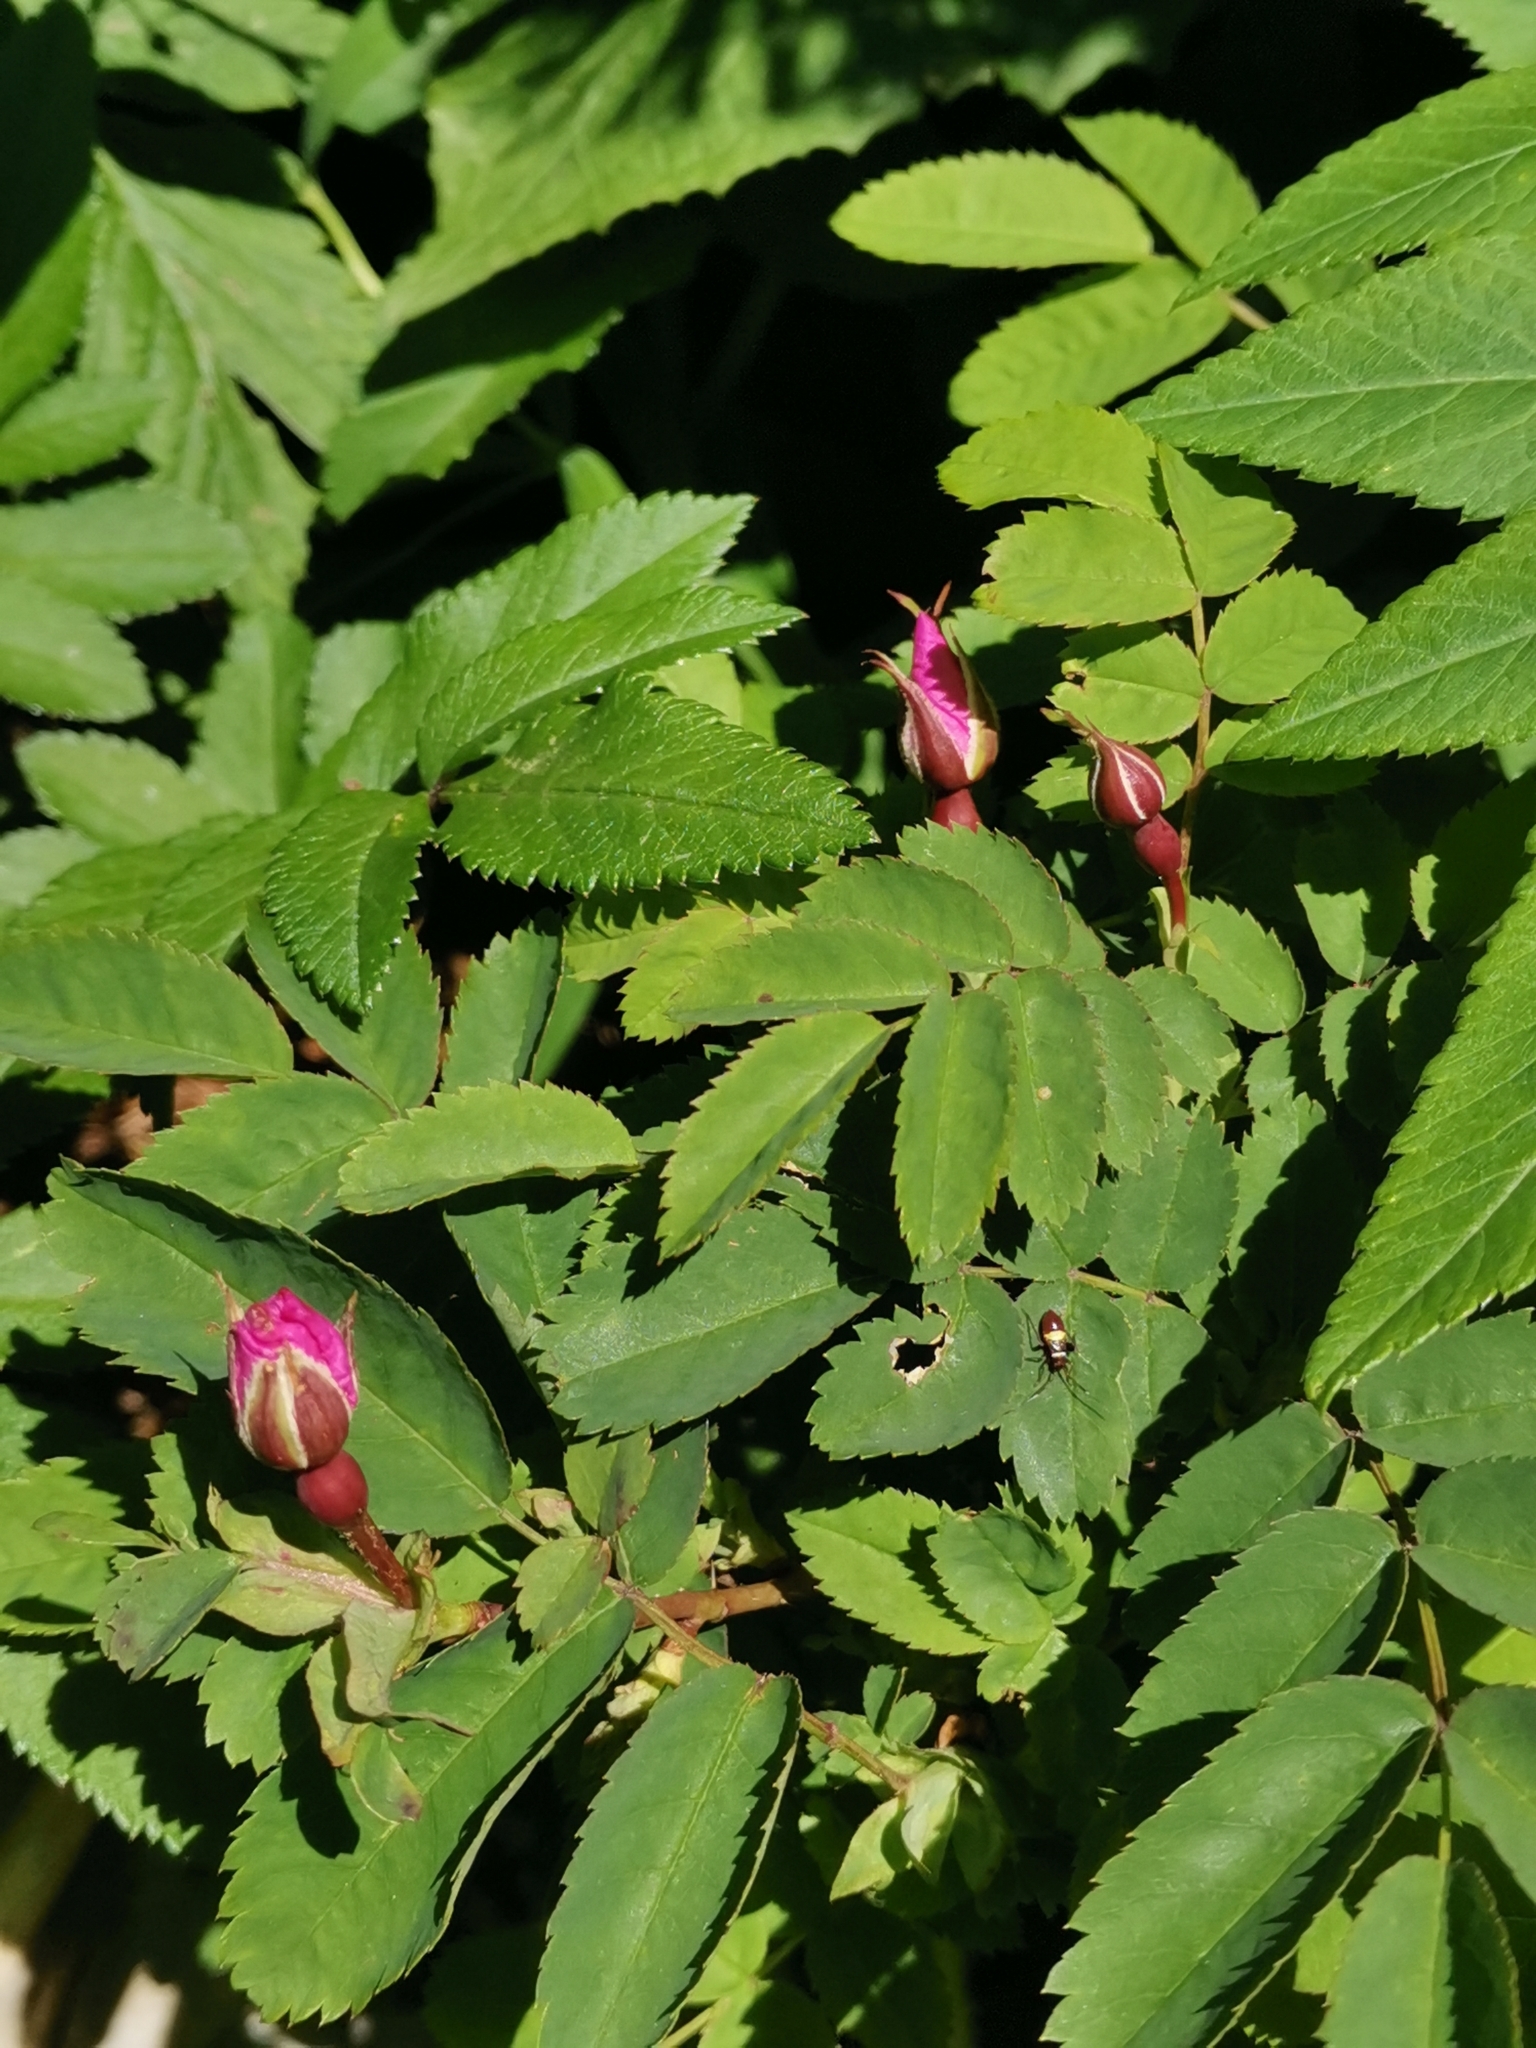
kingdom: Plantae
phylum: Tracheophyta
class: Magnoliopsida
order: Rosales
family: Rosaceae
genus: Rosa
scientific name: Rosa pendulina
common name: Alpine rose
